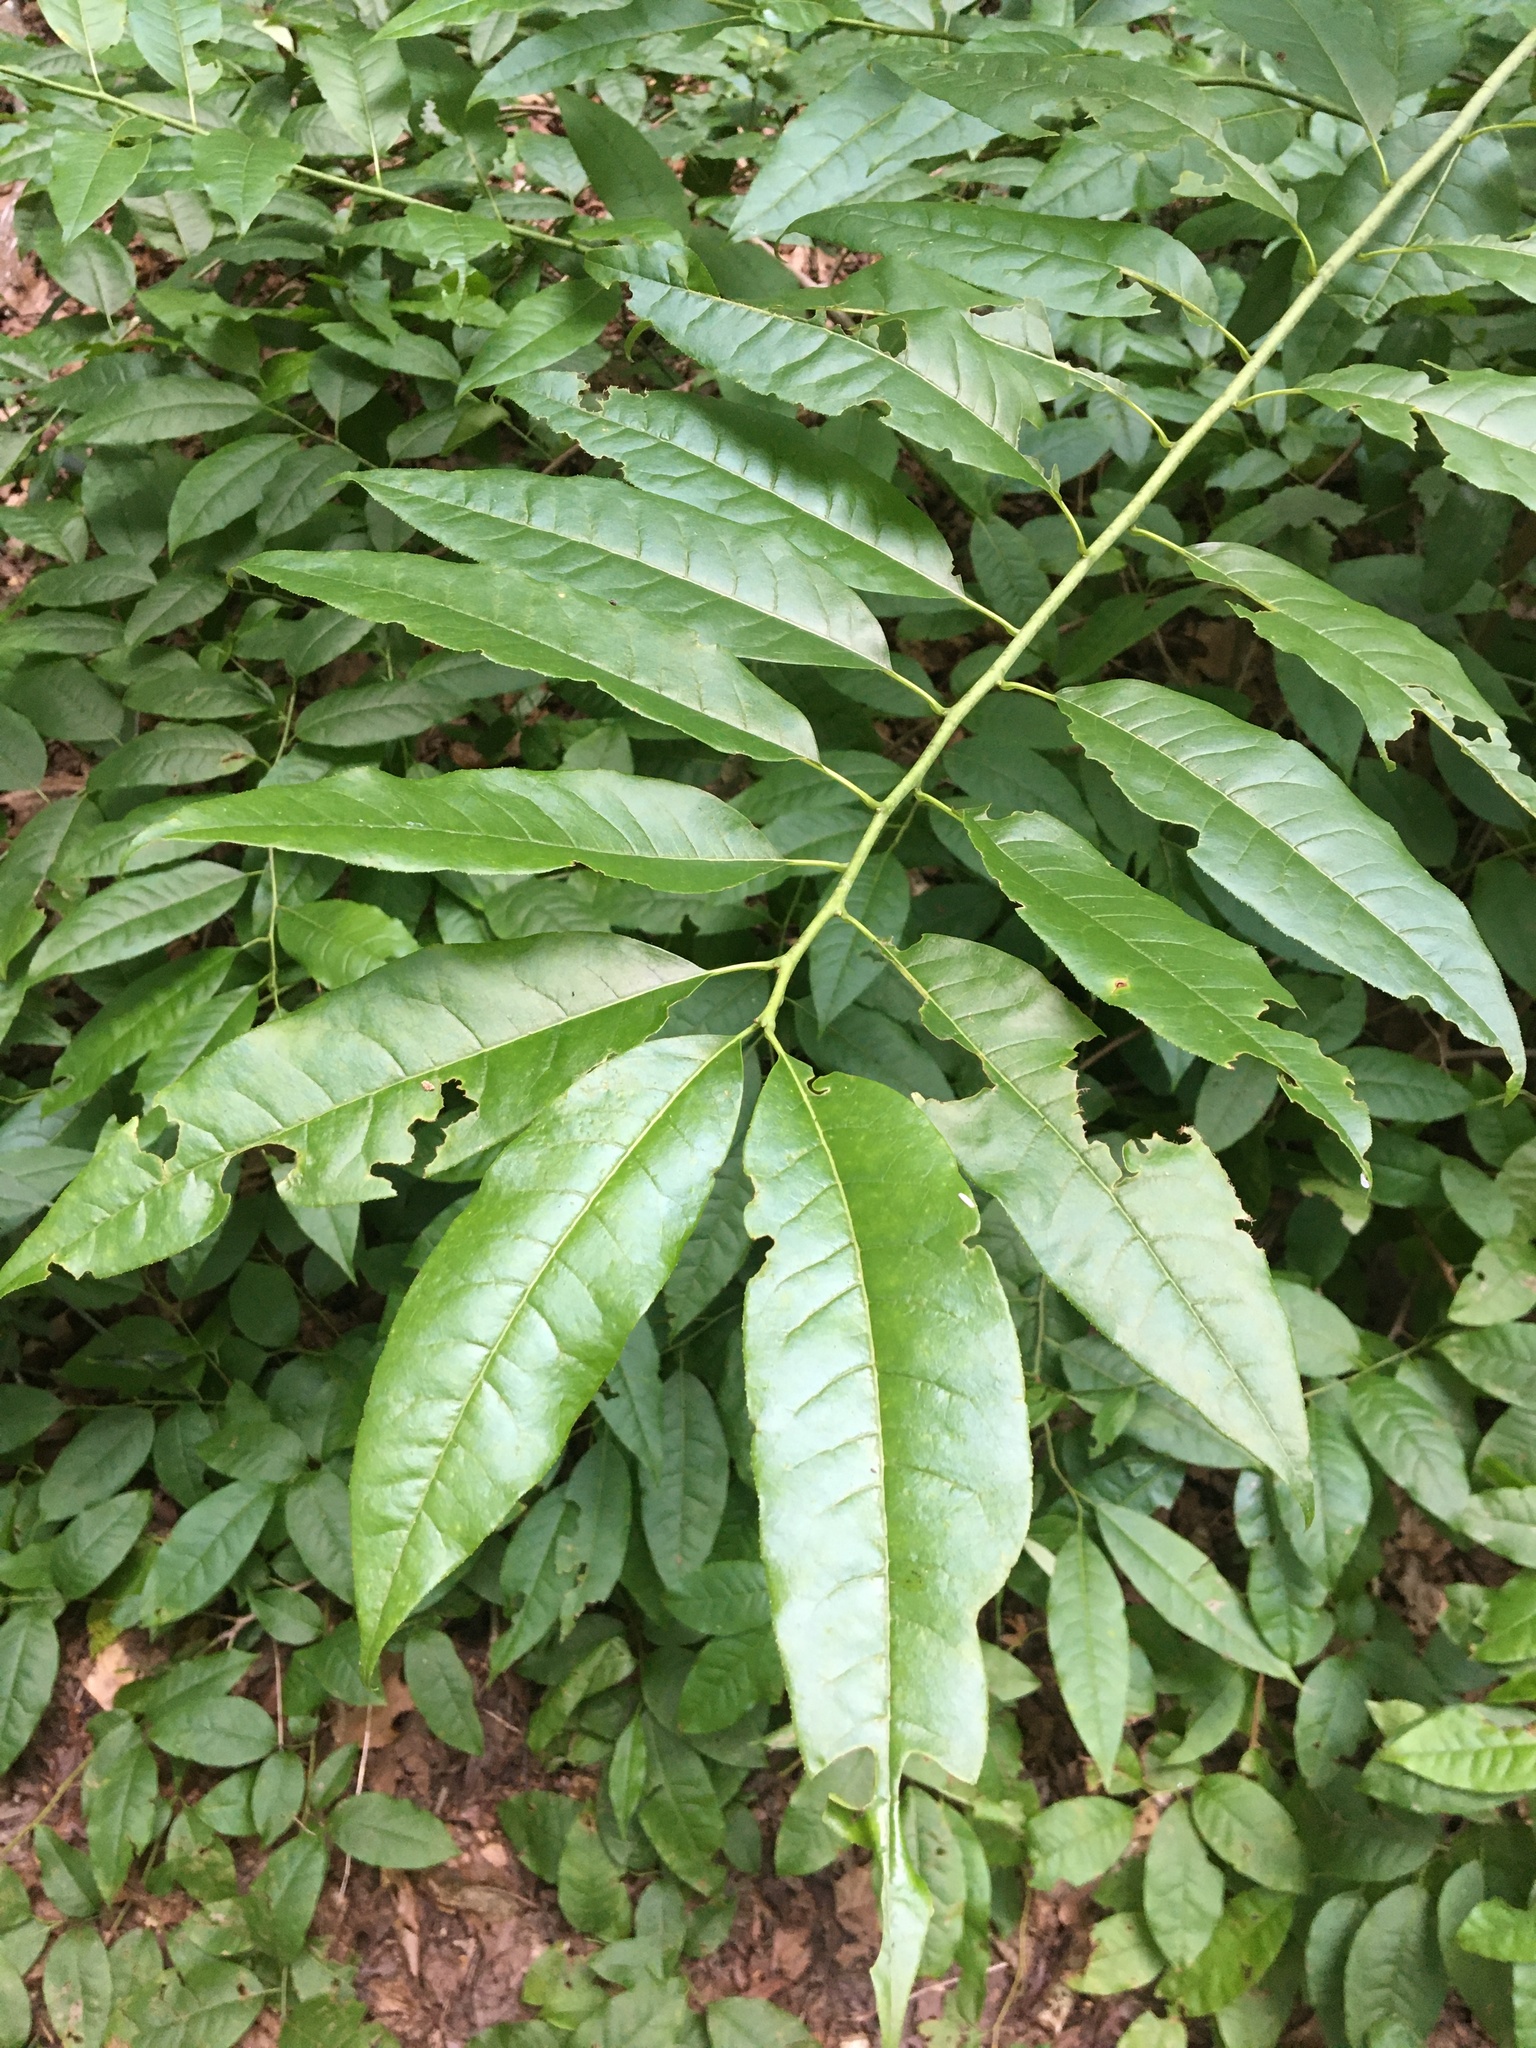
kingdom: Plantae
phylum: Tracheophyta
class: Magnoliopsida
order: Ericales
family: Ericaceae
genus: Oxydendrum
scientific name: Oxydendrum arboreum
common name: Sourwood
